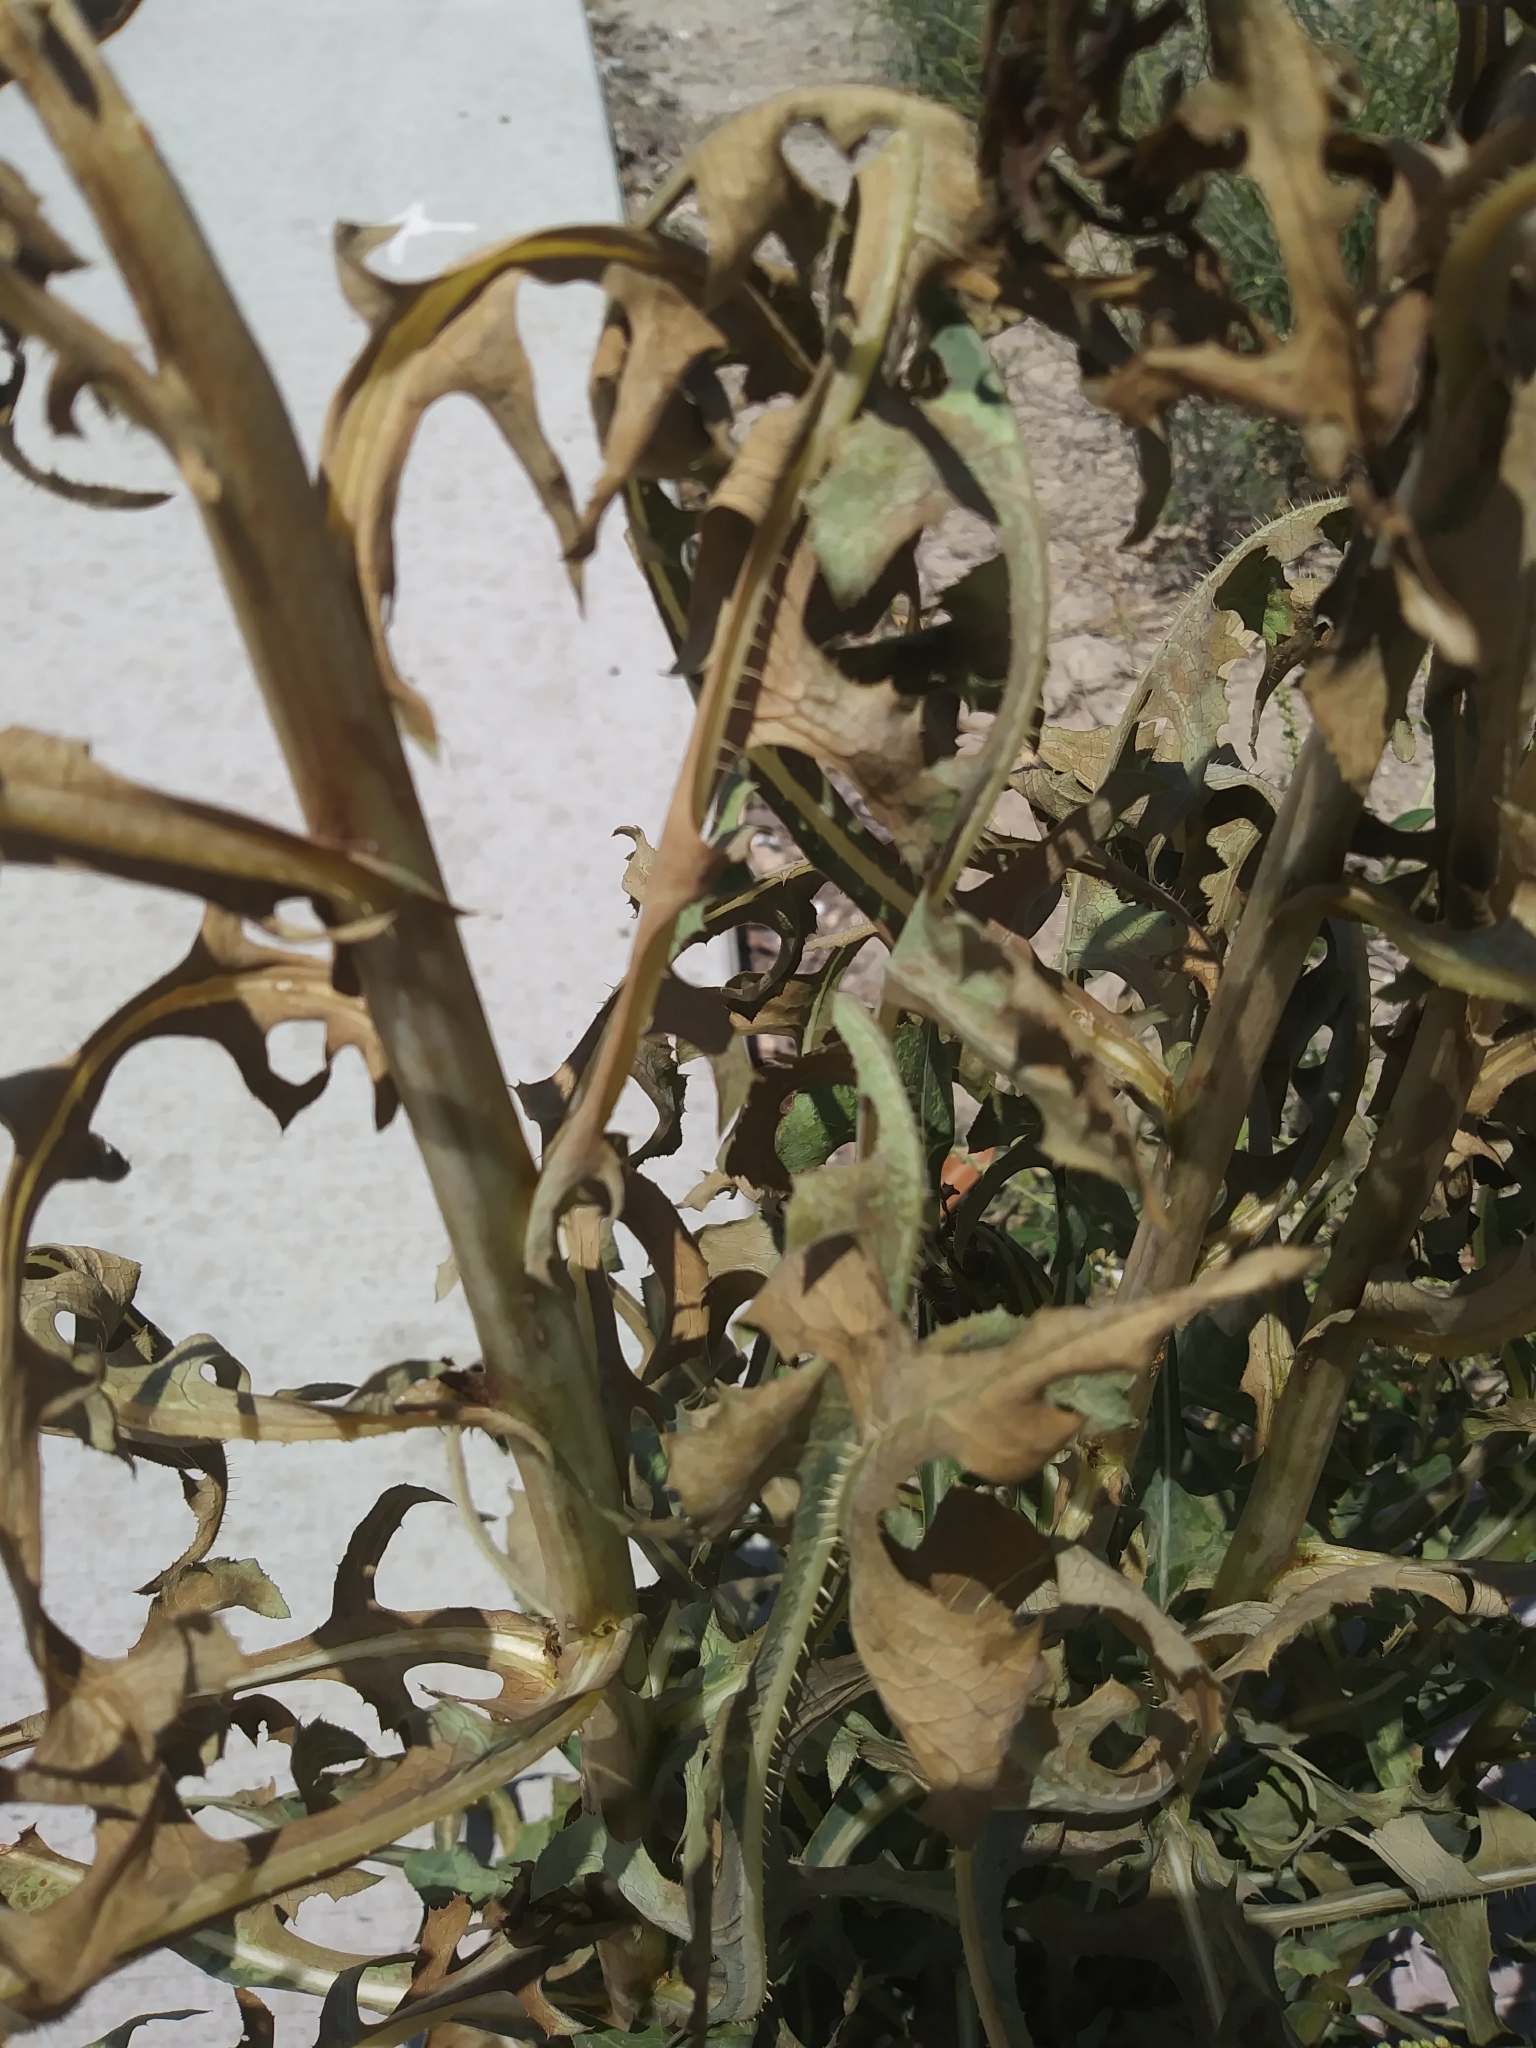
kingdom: Plantae
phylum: Tracheophyta
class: Magnoliopsida
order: Asterales
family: Asteraceae
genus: Lactuca
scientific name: Lactuca serriola
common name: Prickly lettuce
